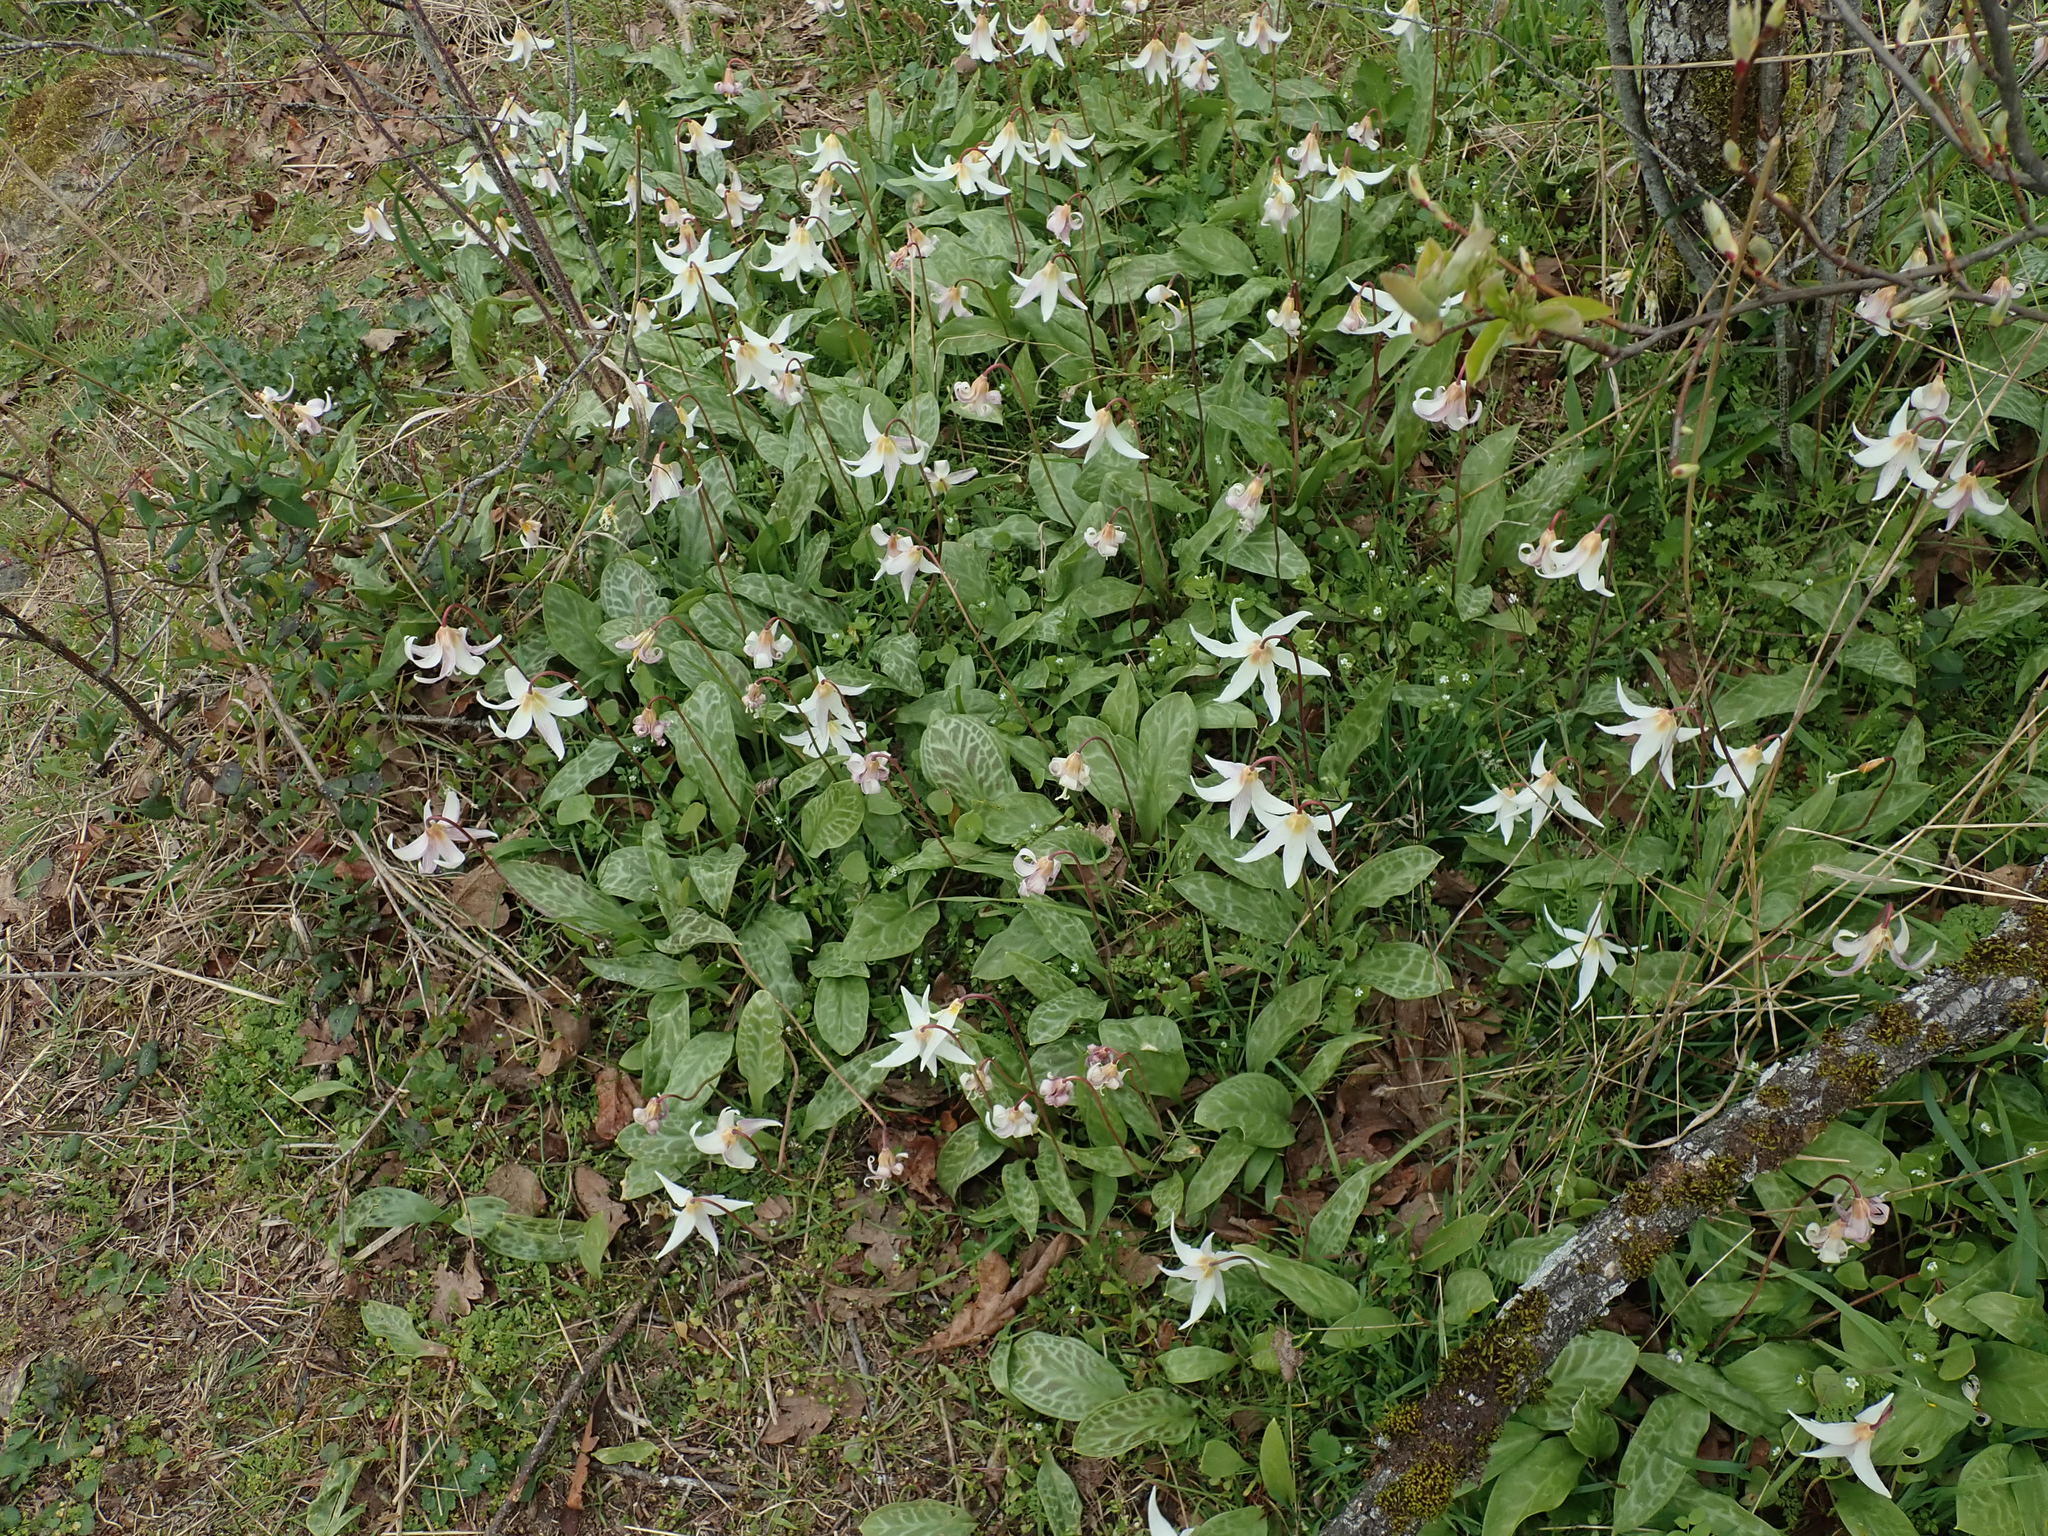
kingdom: Plantae
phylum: Tracheophyta
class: Liliopsida
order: Liliales
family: Liliaceae
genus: Erythronium
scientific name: Erythronium oregonum
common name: Giant adder's-tongue
